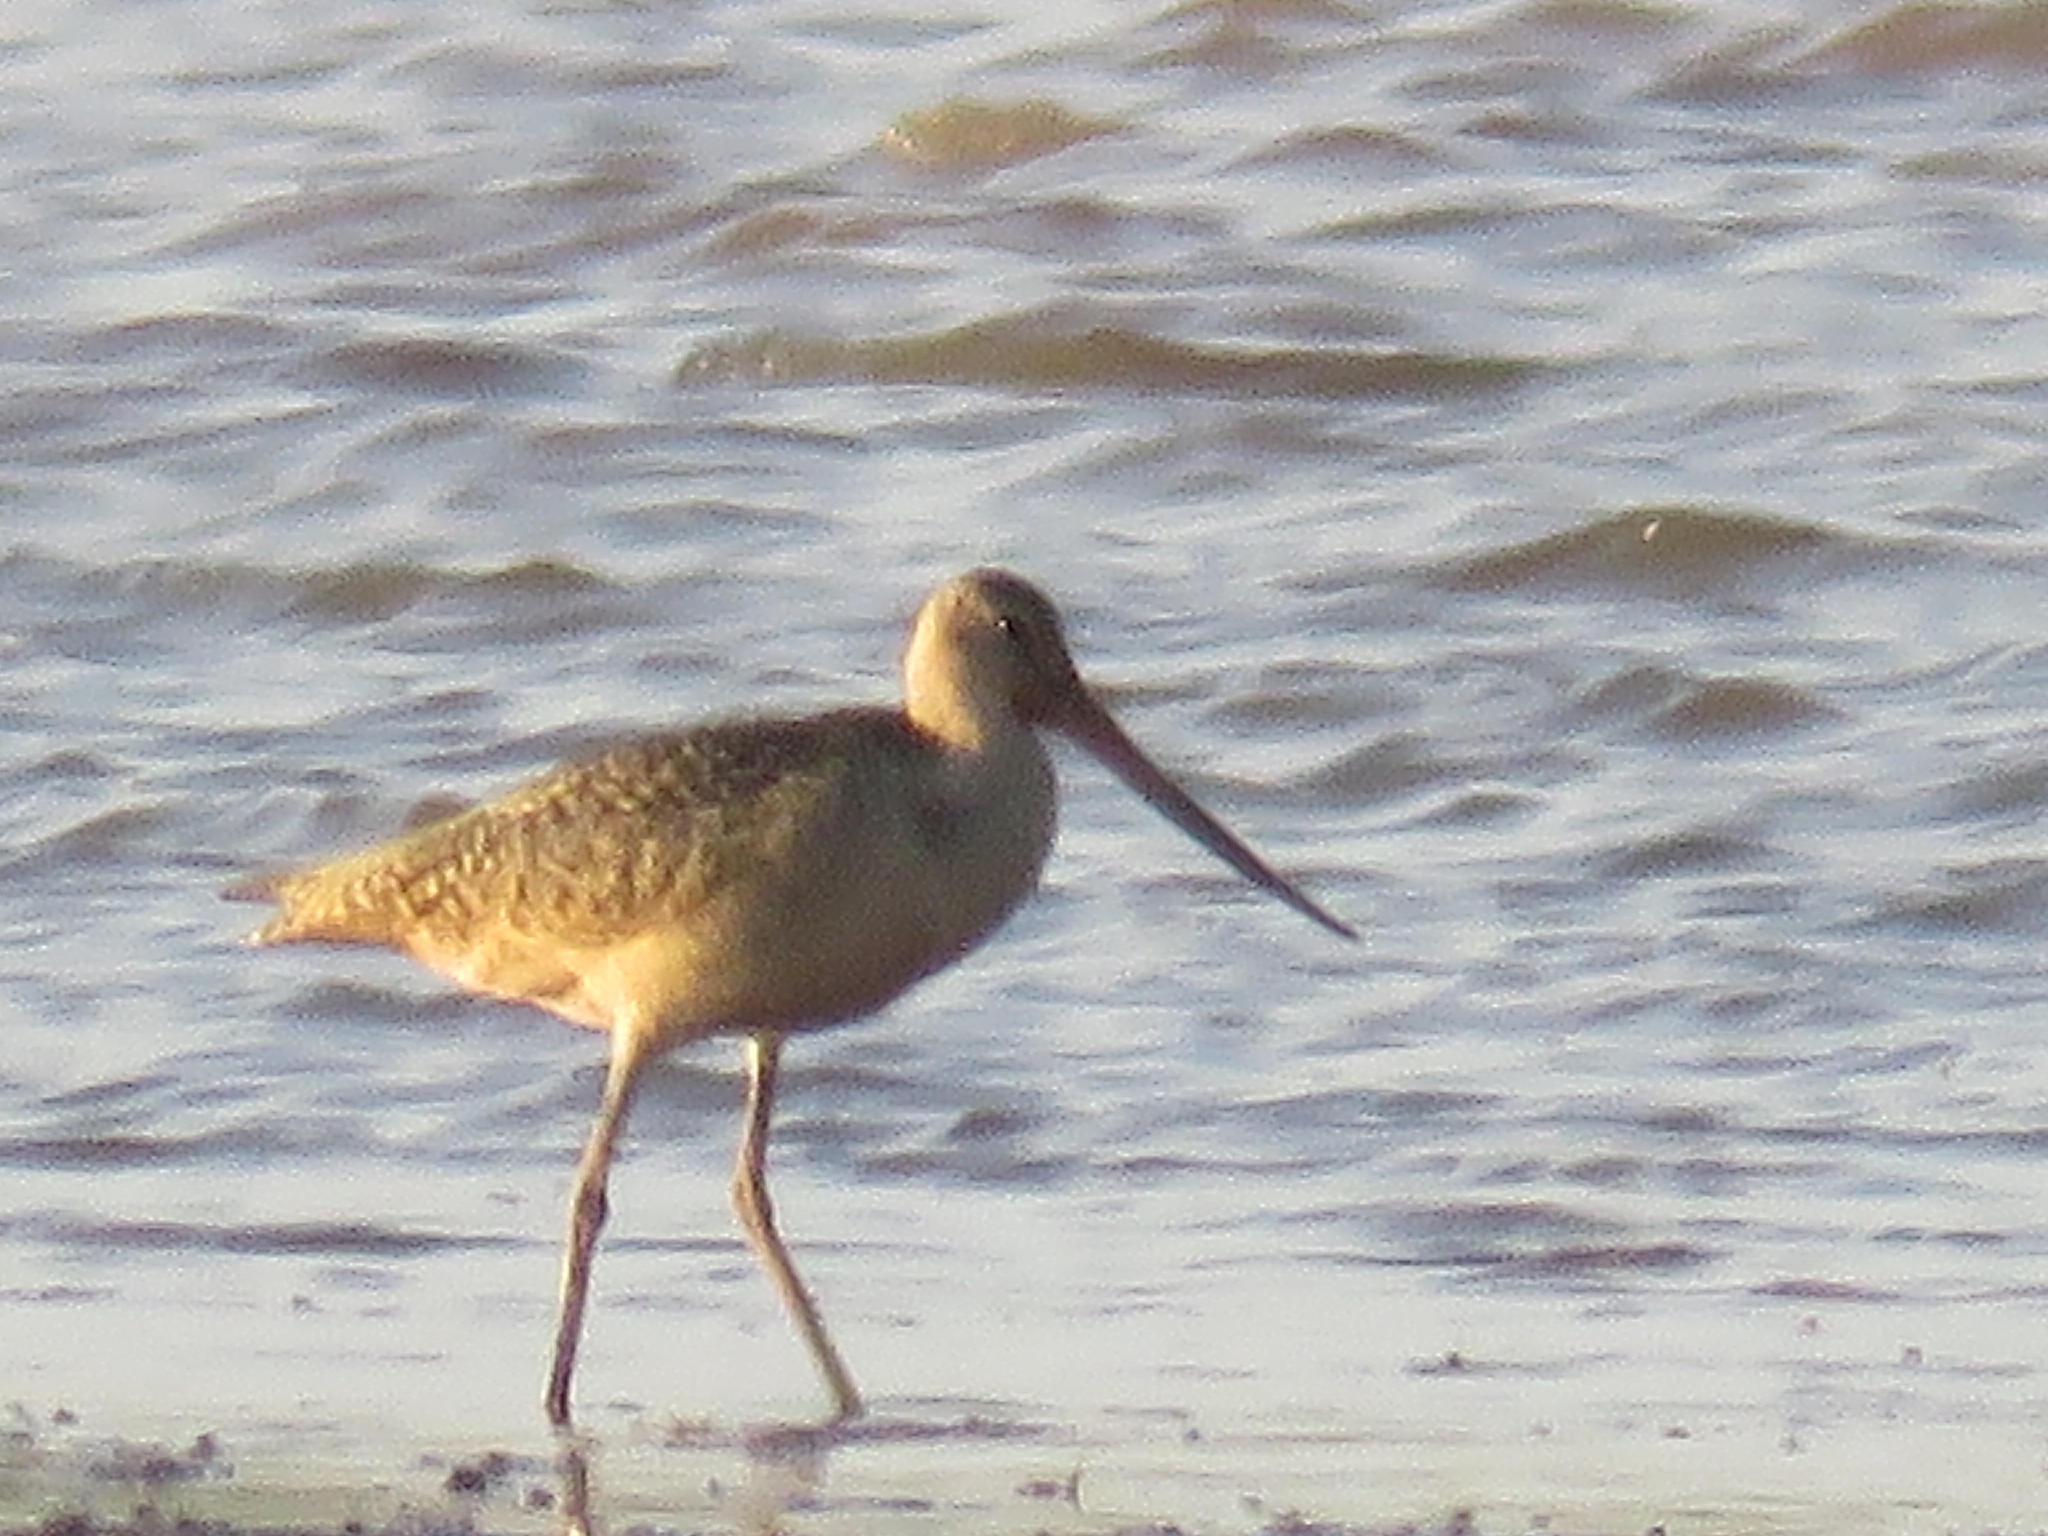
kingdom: Animalia
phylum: Chordata
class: Aves
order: Charadriiformes
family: Scolopacidae
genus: Limosa
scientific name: Limosa fedoa
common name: Marbled godwit
